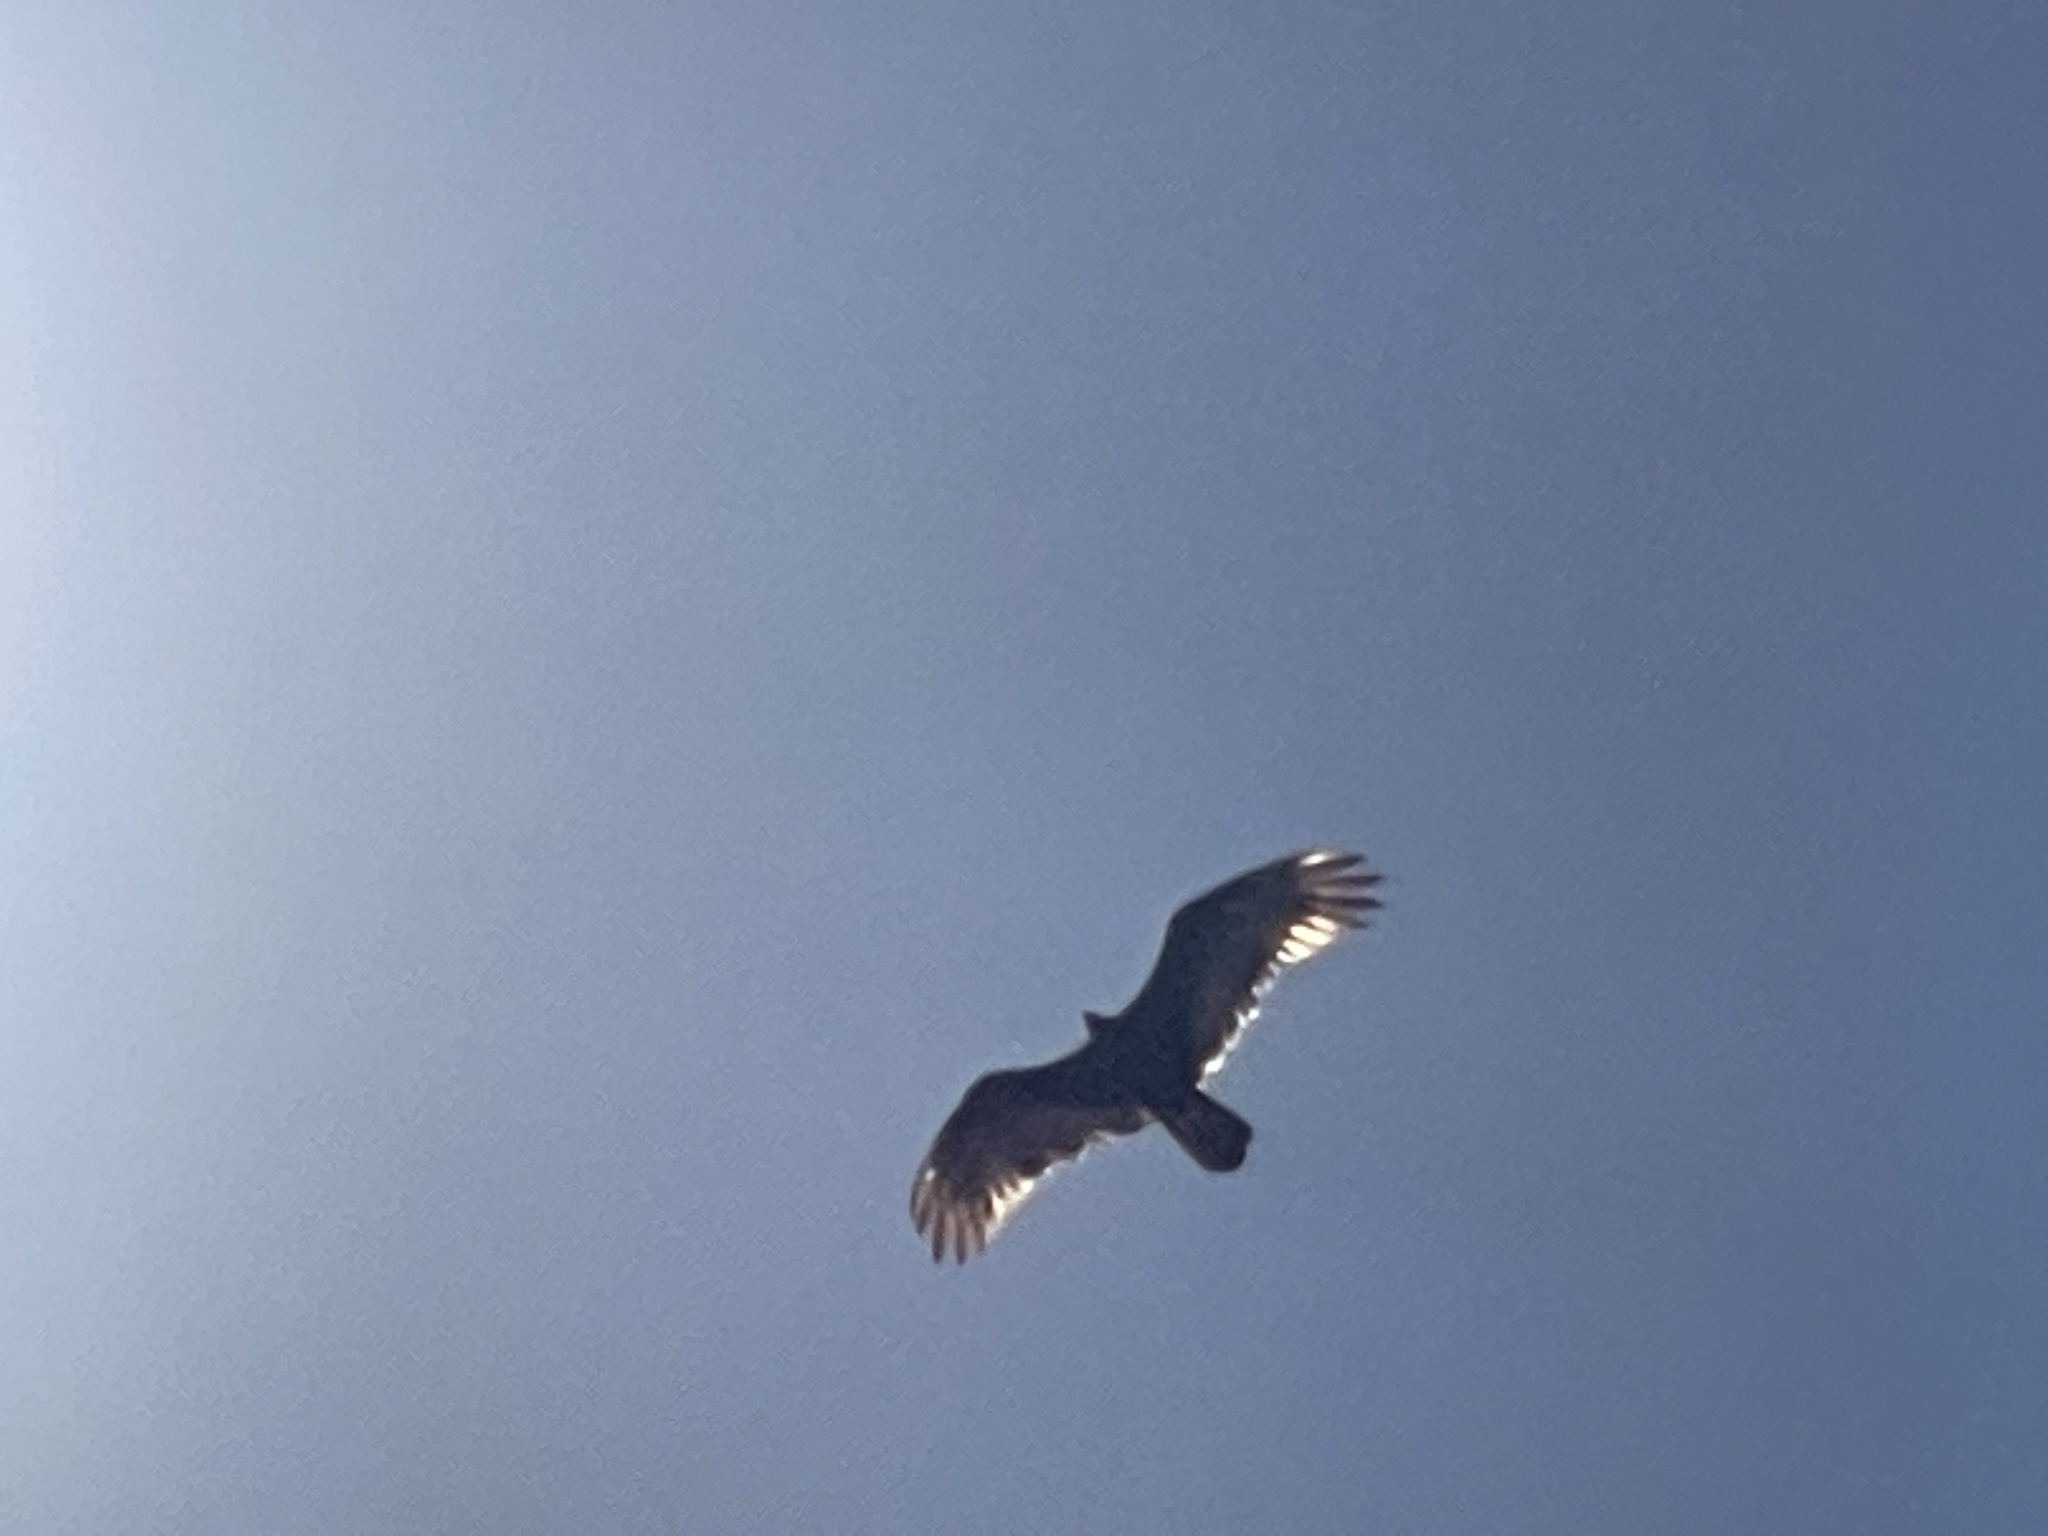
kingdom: Animalia
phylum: Chordata
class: Aves
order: Accipitriformes
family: Cathartidae
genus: Cathartes
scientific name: Cathartes aura
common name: Turkey vulture
